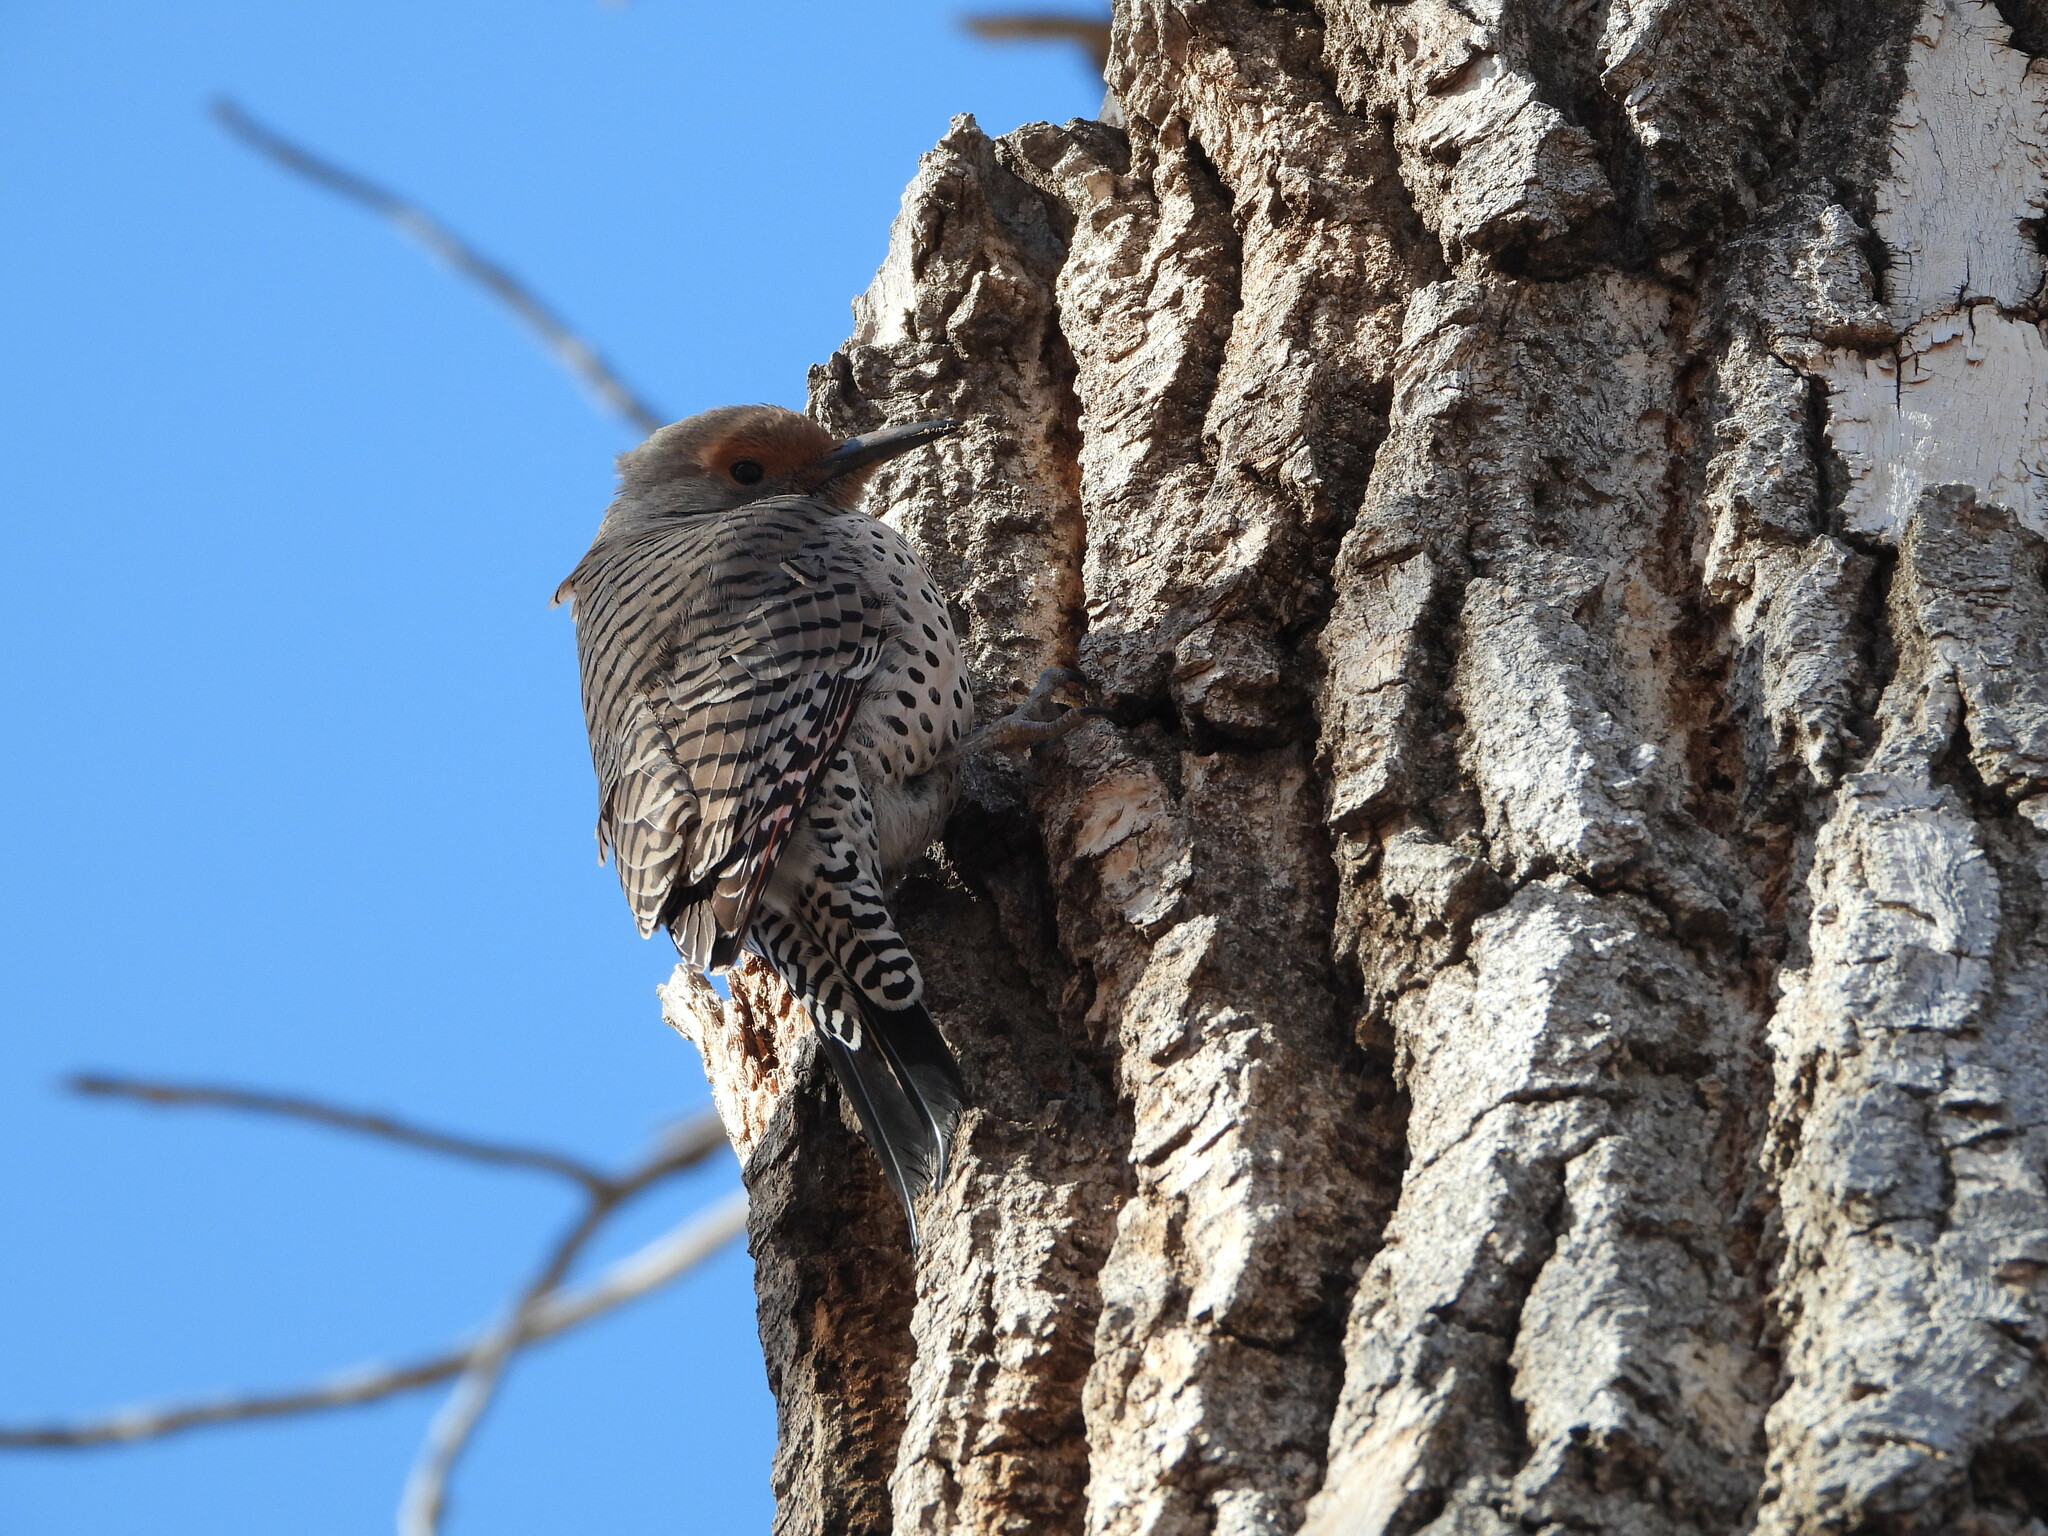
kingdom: Animalia
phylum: Chordata
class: Aves
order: Piciformes
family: Picidae
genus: Colaptes
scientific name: Colaptes auratus
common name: Northern flicker
